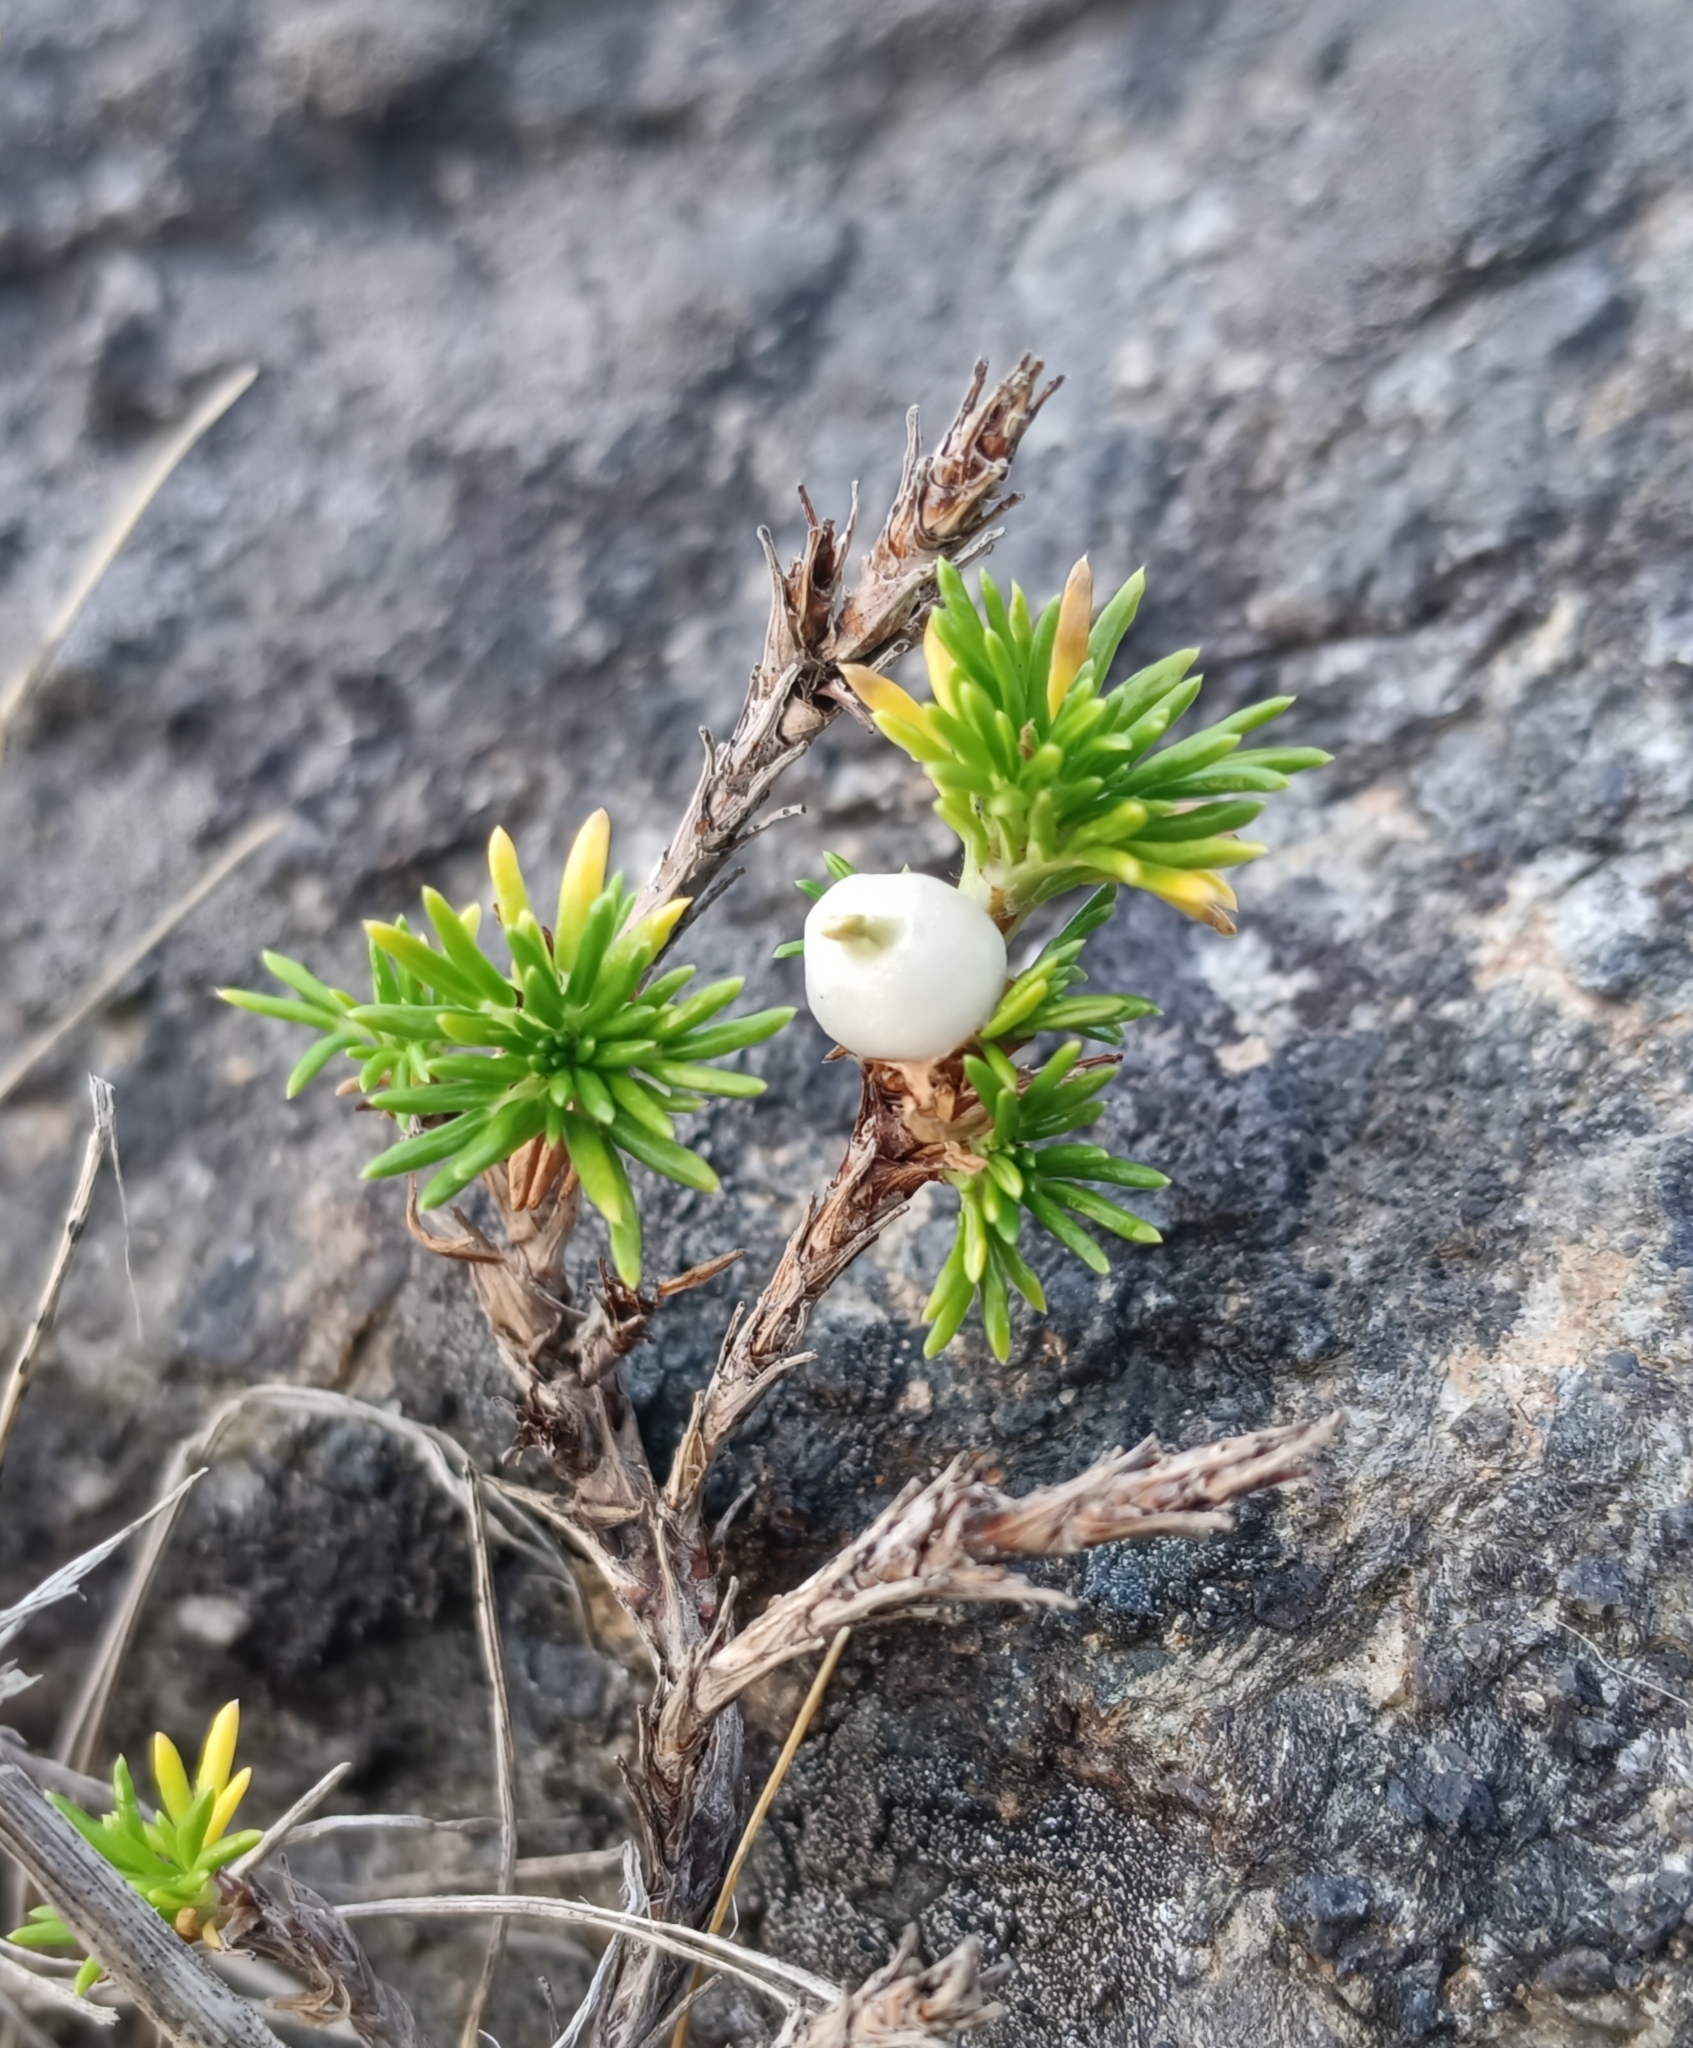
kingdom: Plantae
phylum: Tracheophyta
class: Magnoliopsida
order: Rosales
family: Rosaceae
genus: Margyricarpus
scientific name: Margyricarpus pinnatus
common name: Pearlfruit
